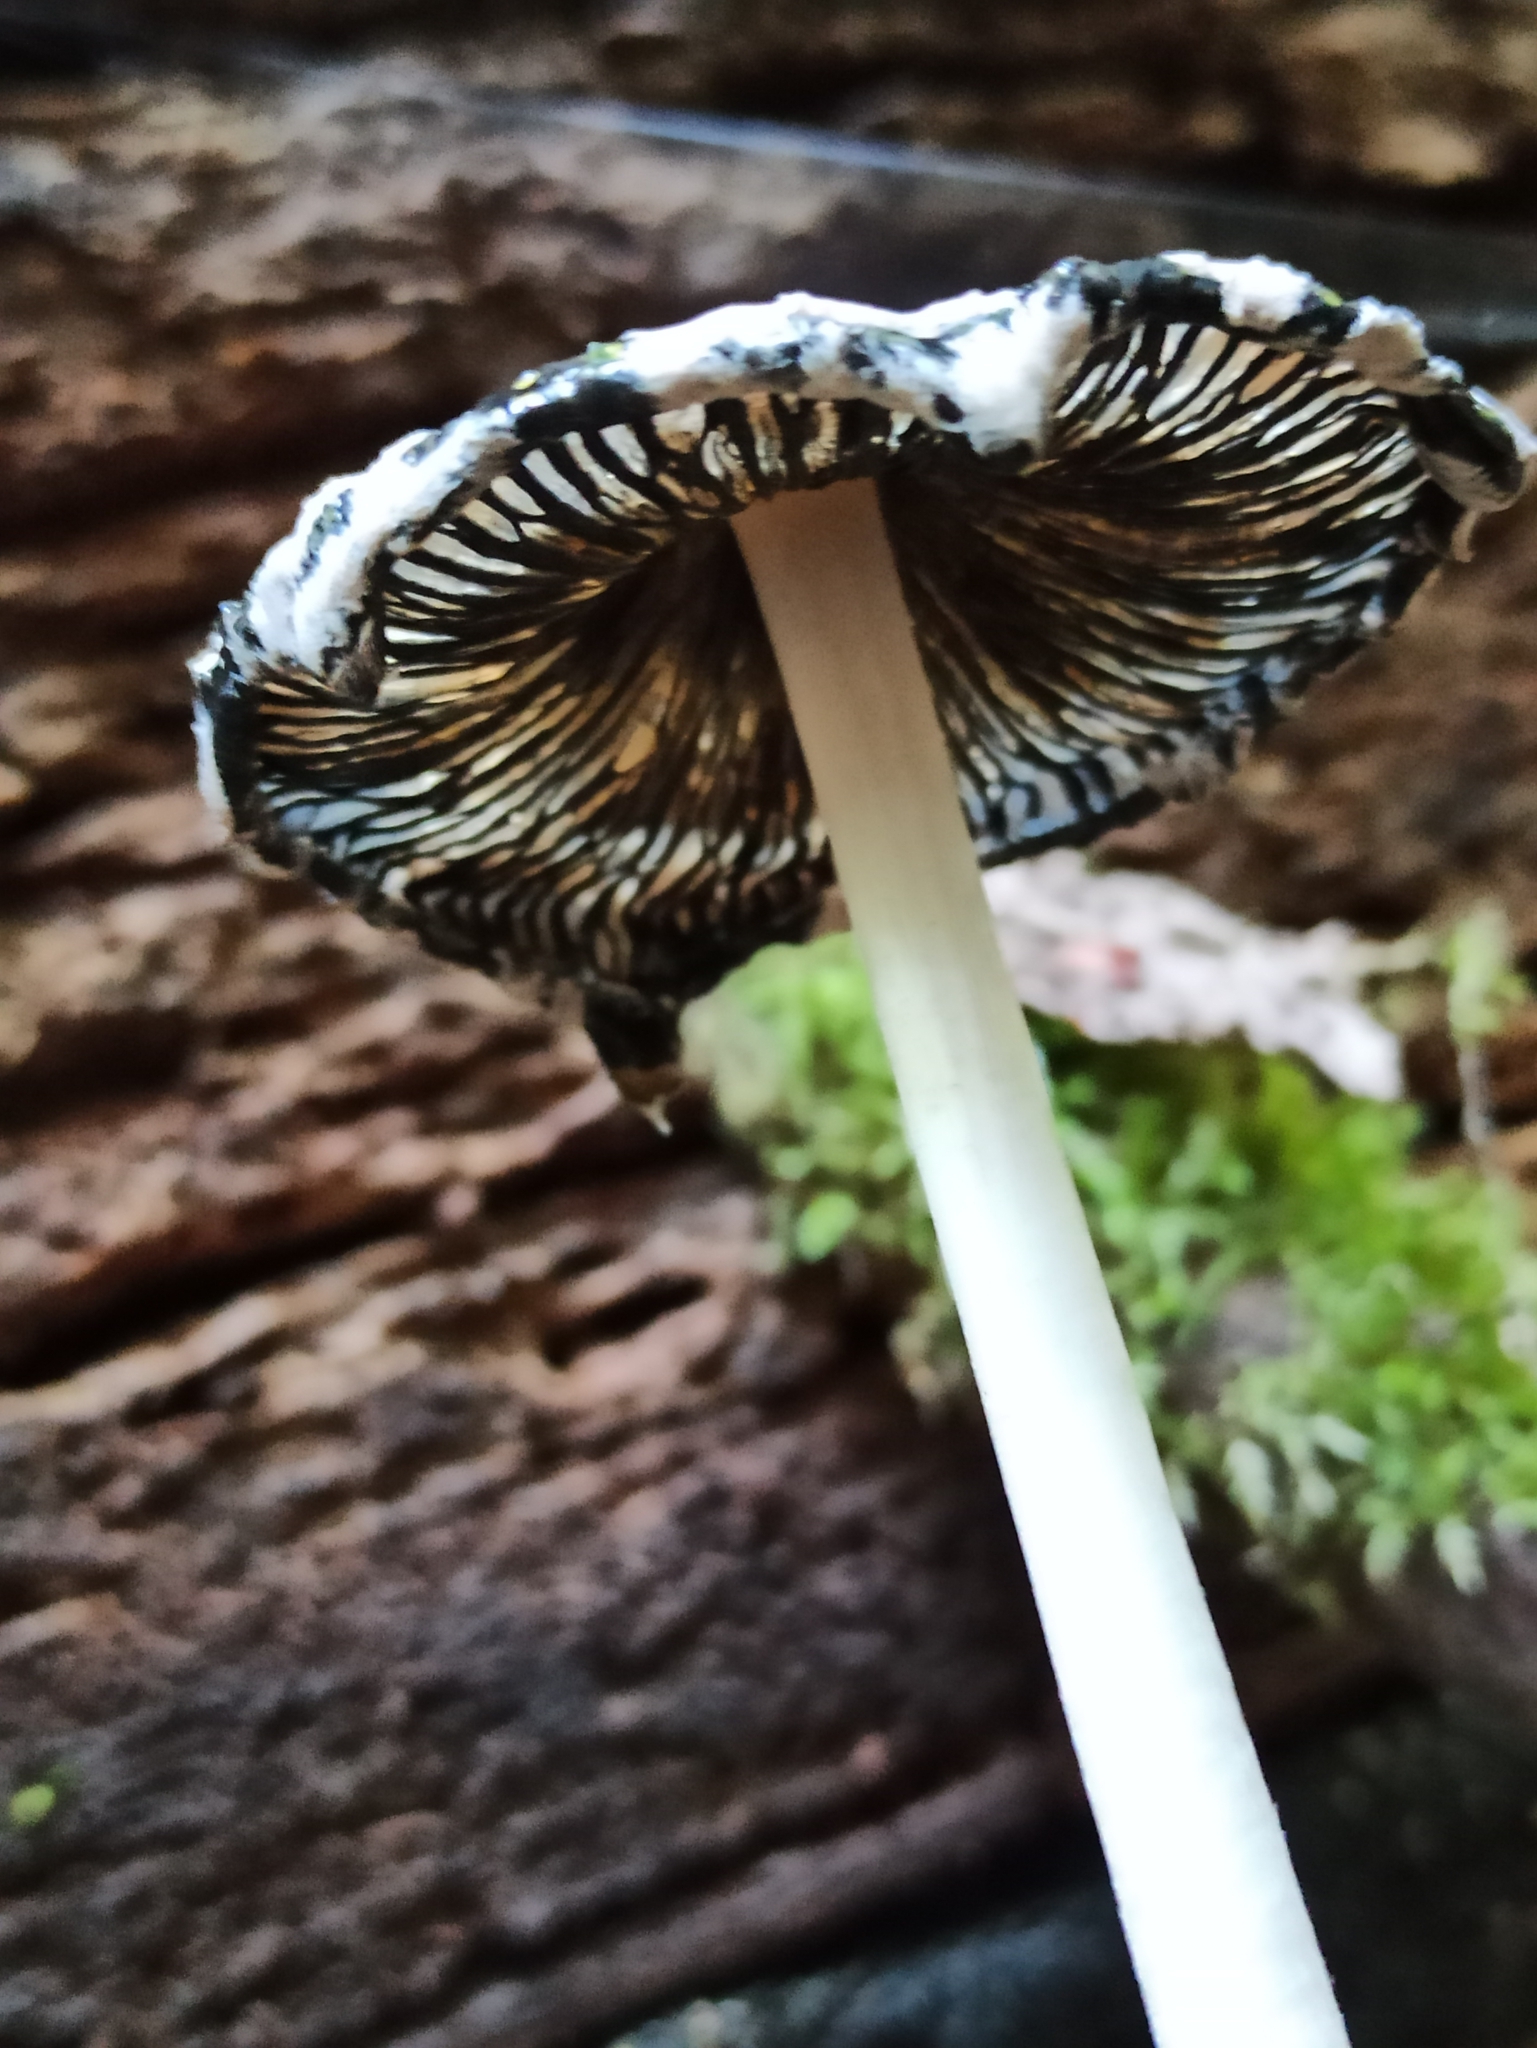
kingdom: Fungi
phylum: Basidiomycota
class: Agaricomycetes
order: Agaricales
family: Psathyrellaceae
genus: Coprinopsis
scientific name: Coprinopsis picacea
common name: Magpie inkcap
